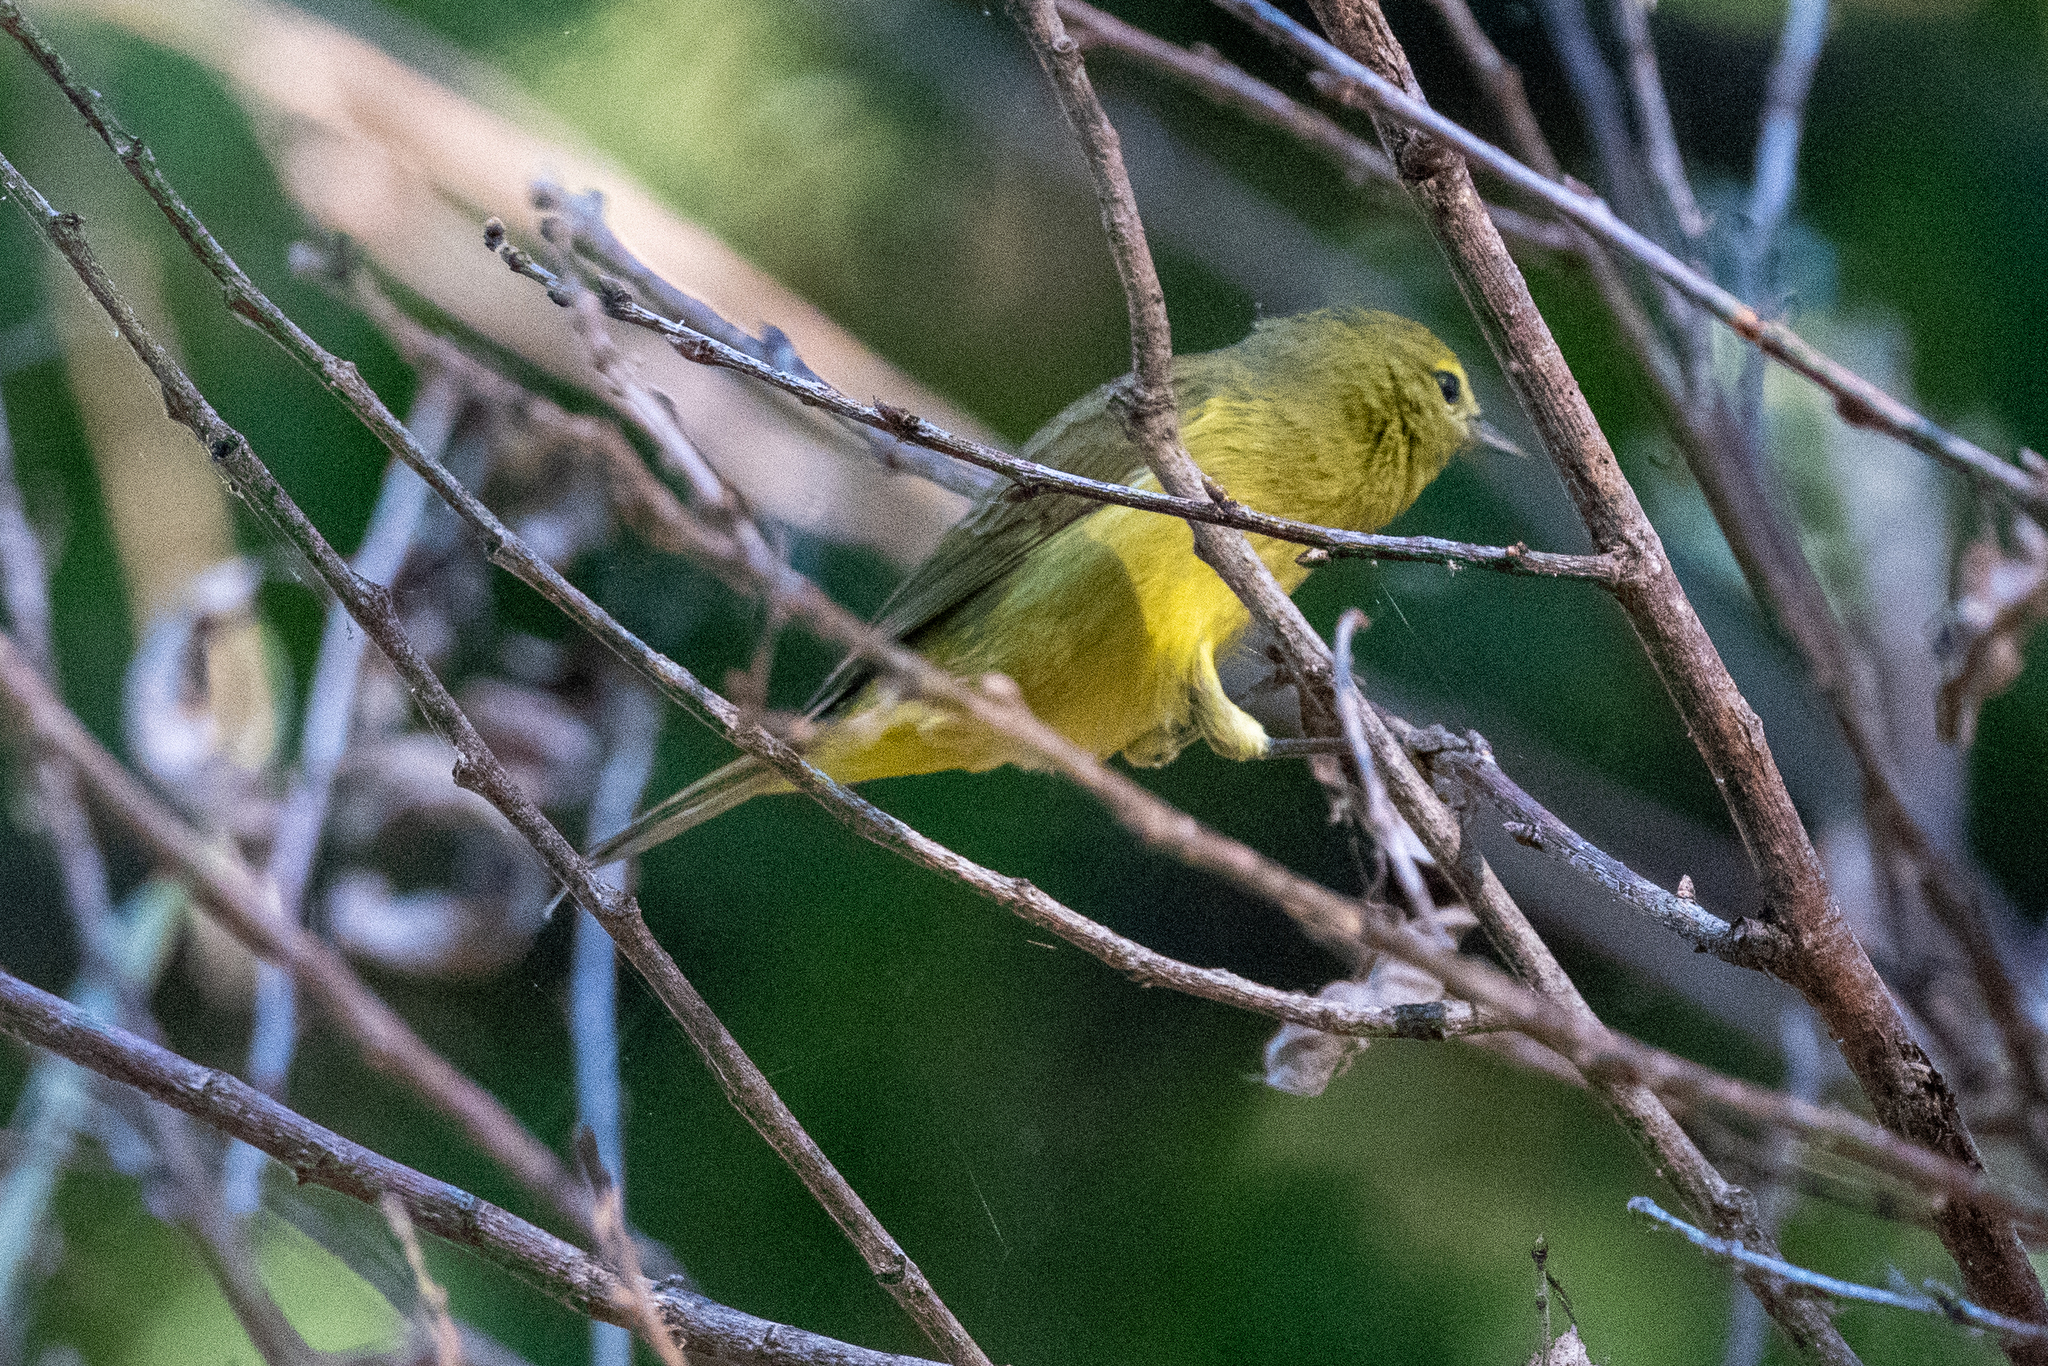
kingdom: Animalia
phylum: Chordata
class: Aves
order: Passeriformes
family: Parulidae
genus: Leiothlypis
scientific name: Leiothlypis celata
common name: Orange-crowned warbler
